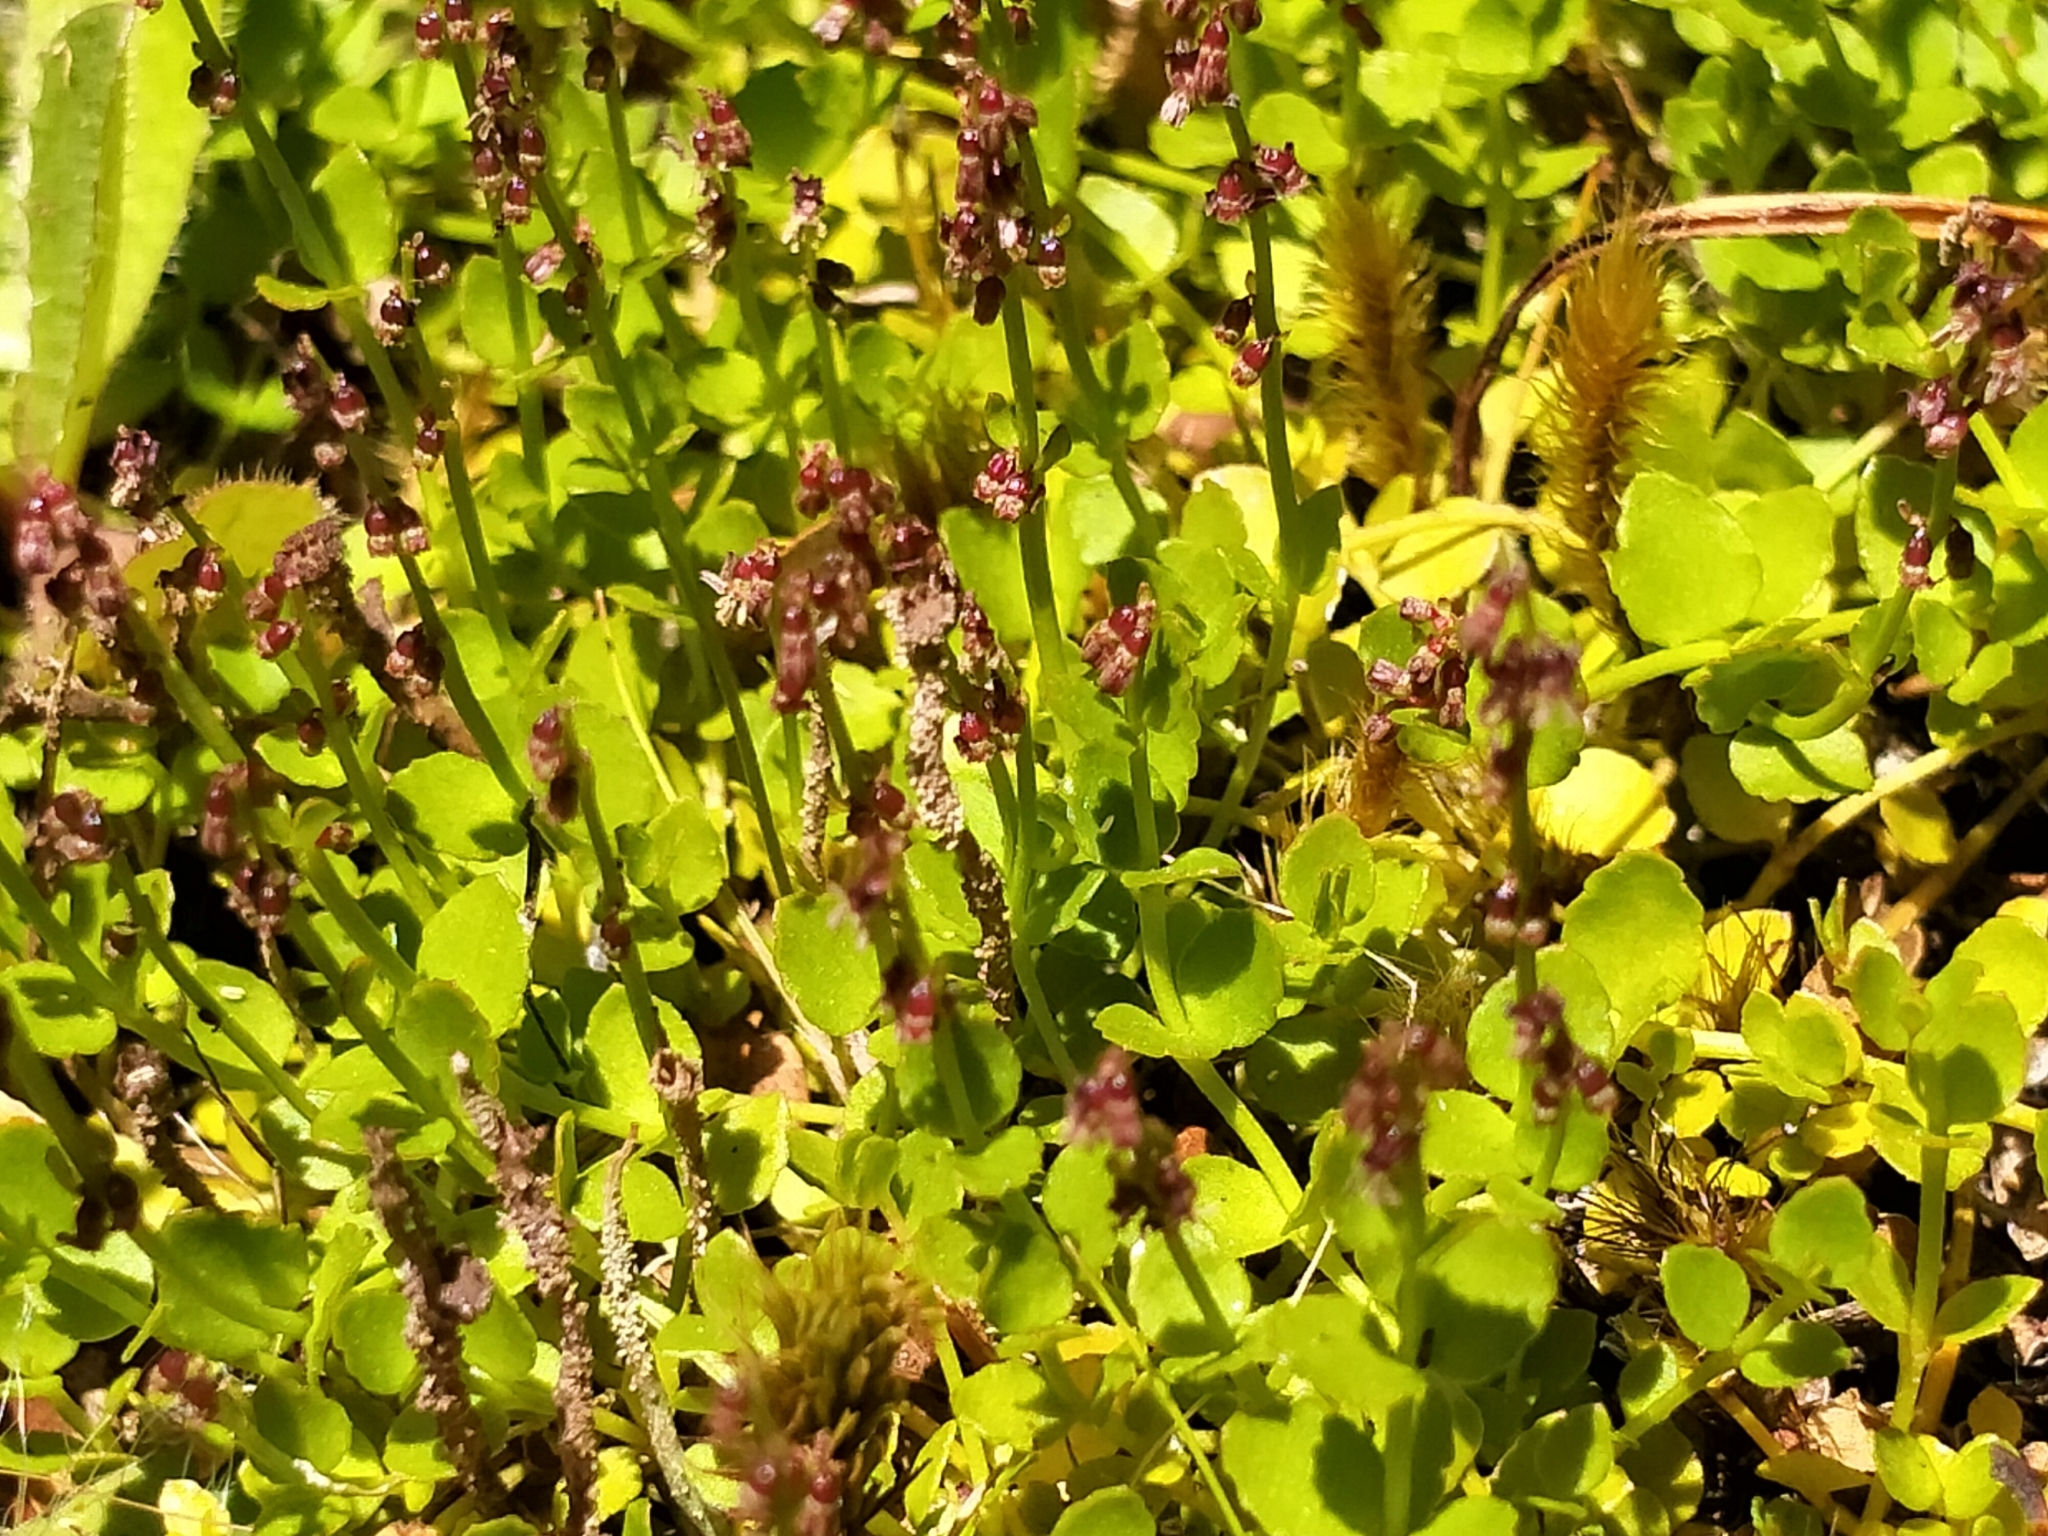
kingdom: Plantae
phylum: Tracheophyta
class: Magnoliopsida
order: Saxifragales
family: Haloragaceae
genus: Gonocarpus
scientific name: Gonocarpus micranthus
